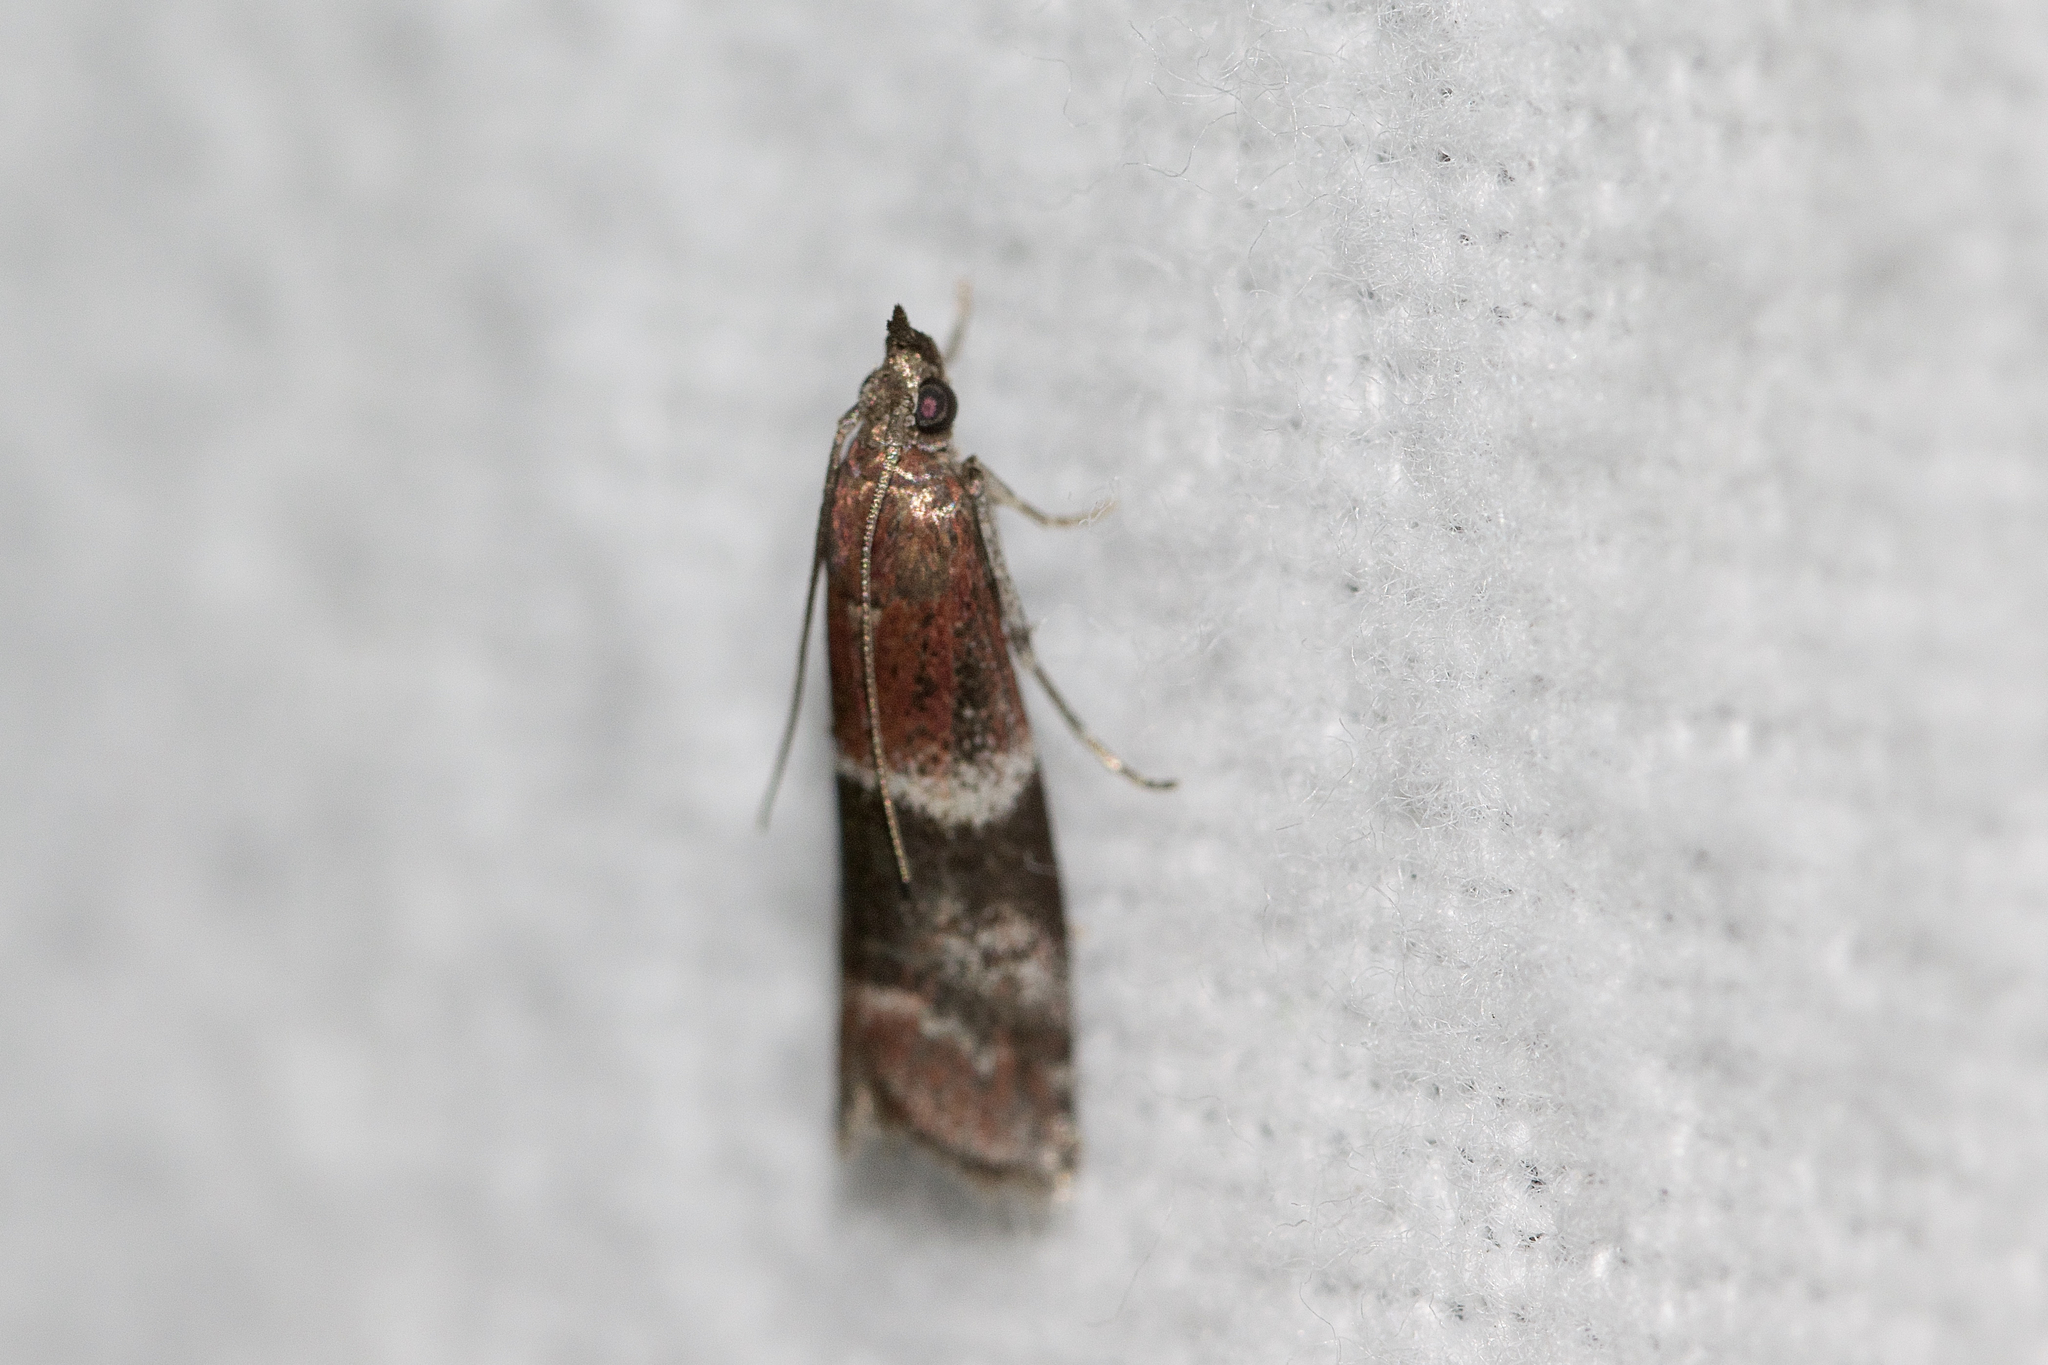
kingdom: Animalia
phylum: Arthropoda
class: Insecta
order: Lepidoptera
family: Pyralidae
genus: Moodna
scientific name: Moodna ostrinella
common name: Darker moodna moth
